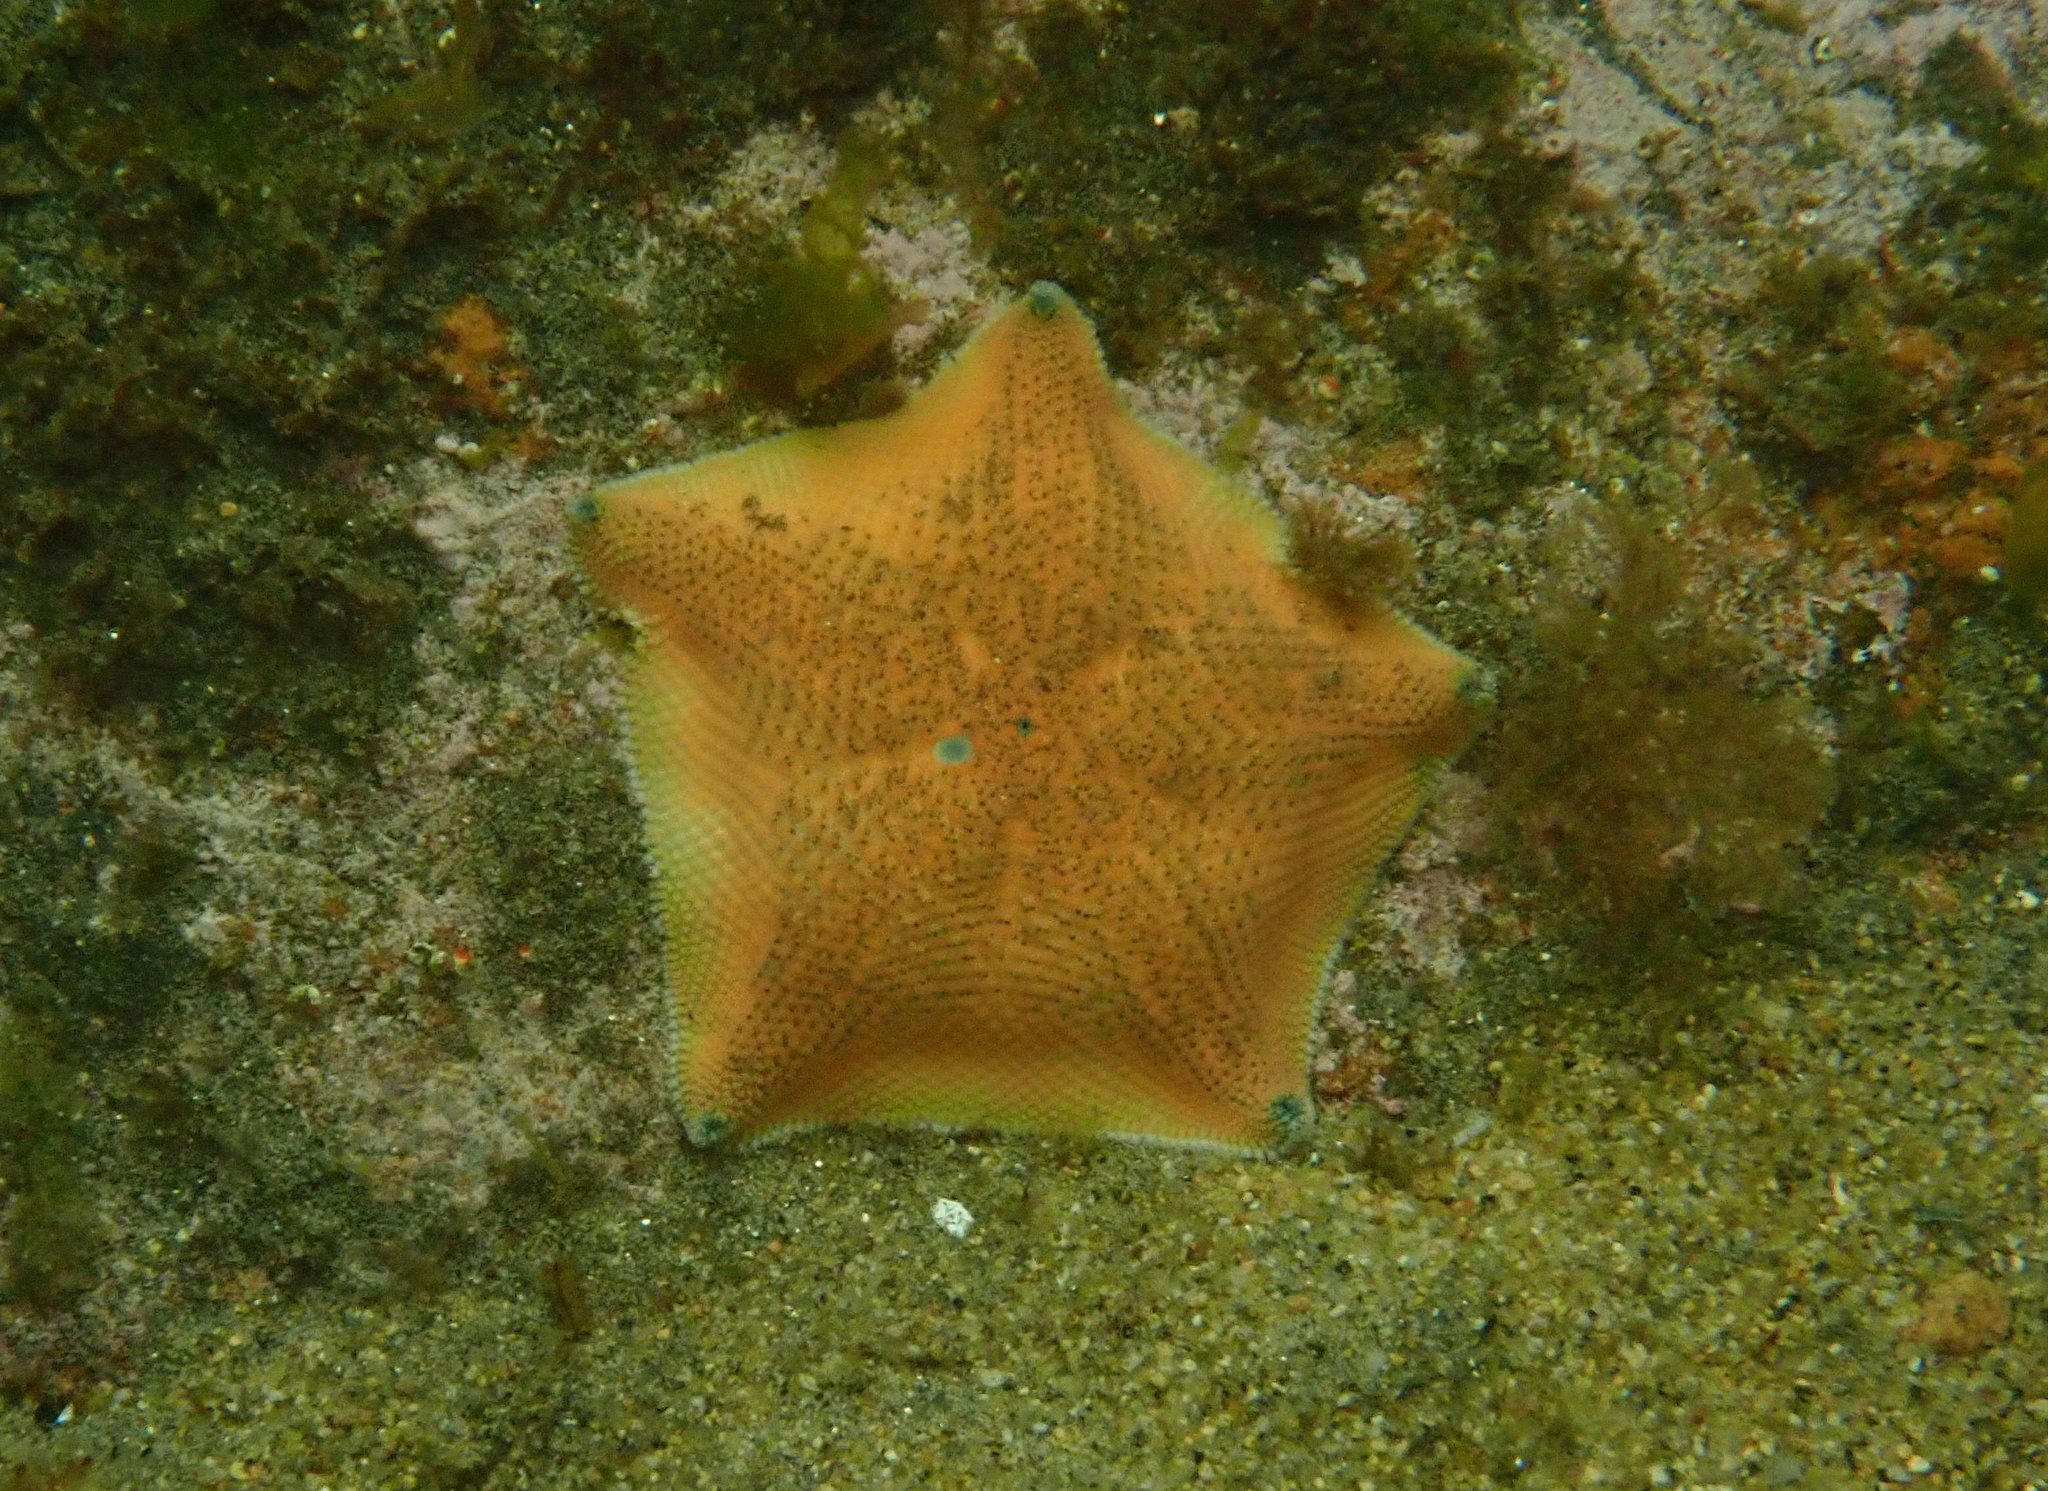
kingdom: Animalia
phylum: Echinodermata
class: Asteroidea
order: Valvatida
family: Asterinidae
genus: Patiriella
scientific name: Patiriella regularis
